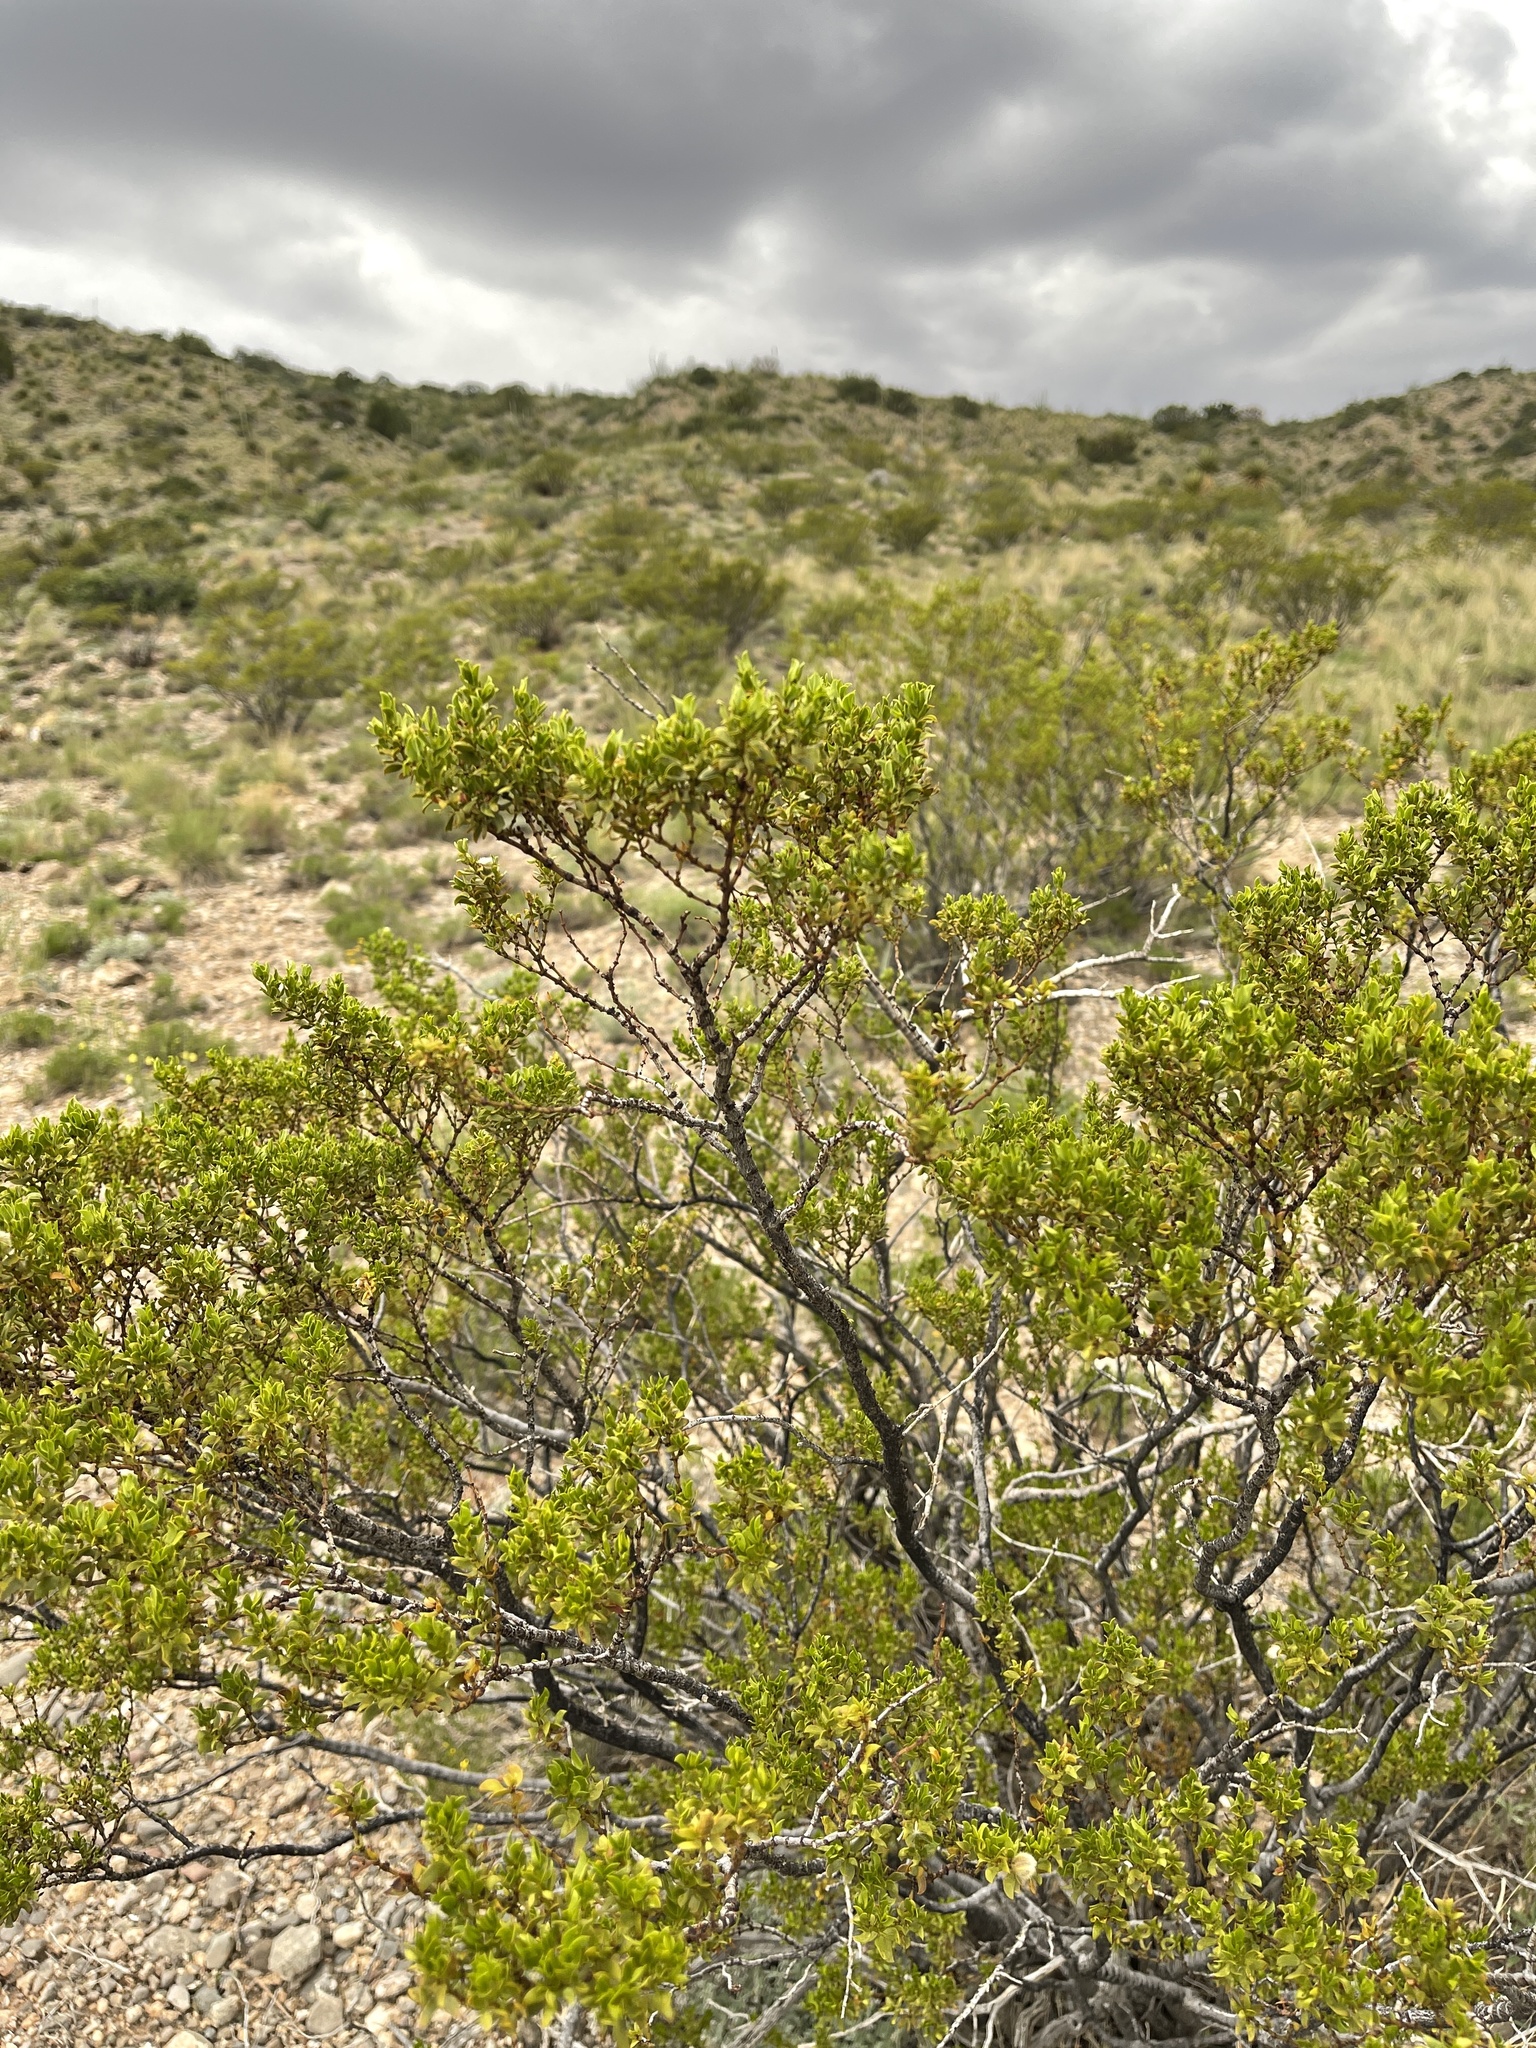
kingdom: Plantae
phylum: Tracheophyta
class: Magnoliopsida
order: Zygophyllales
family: Zygophyllaceae
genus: Larrea
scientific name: Larrea tridentata
